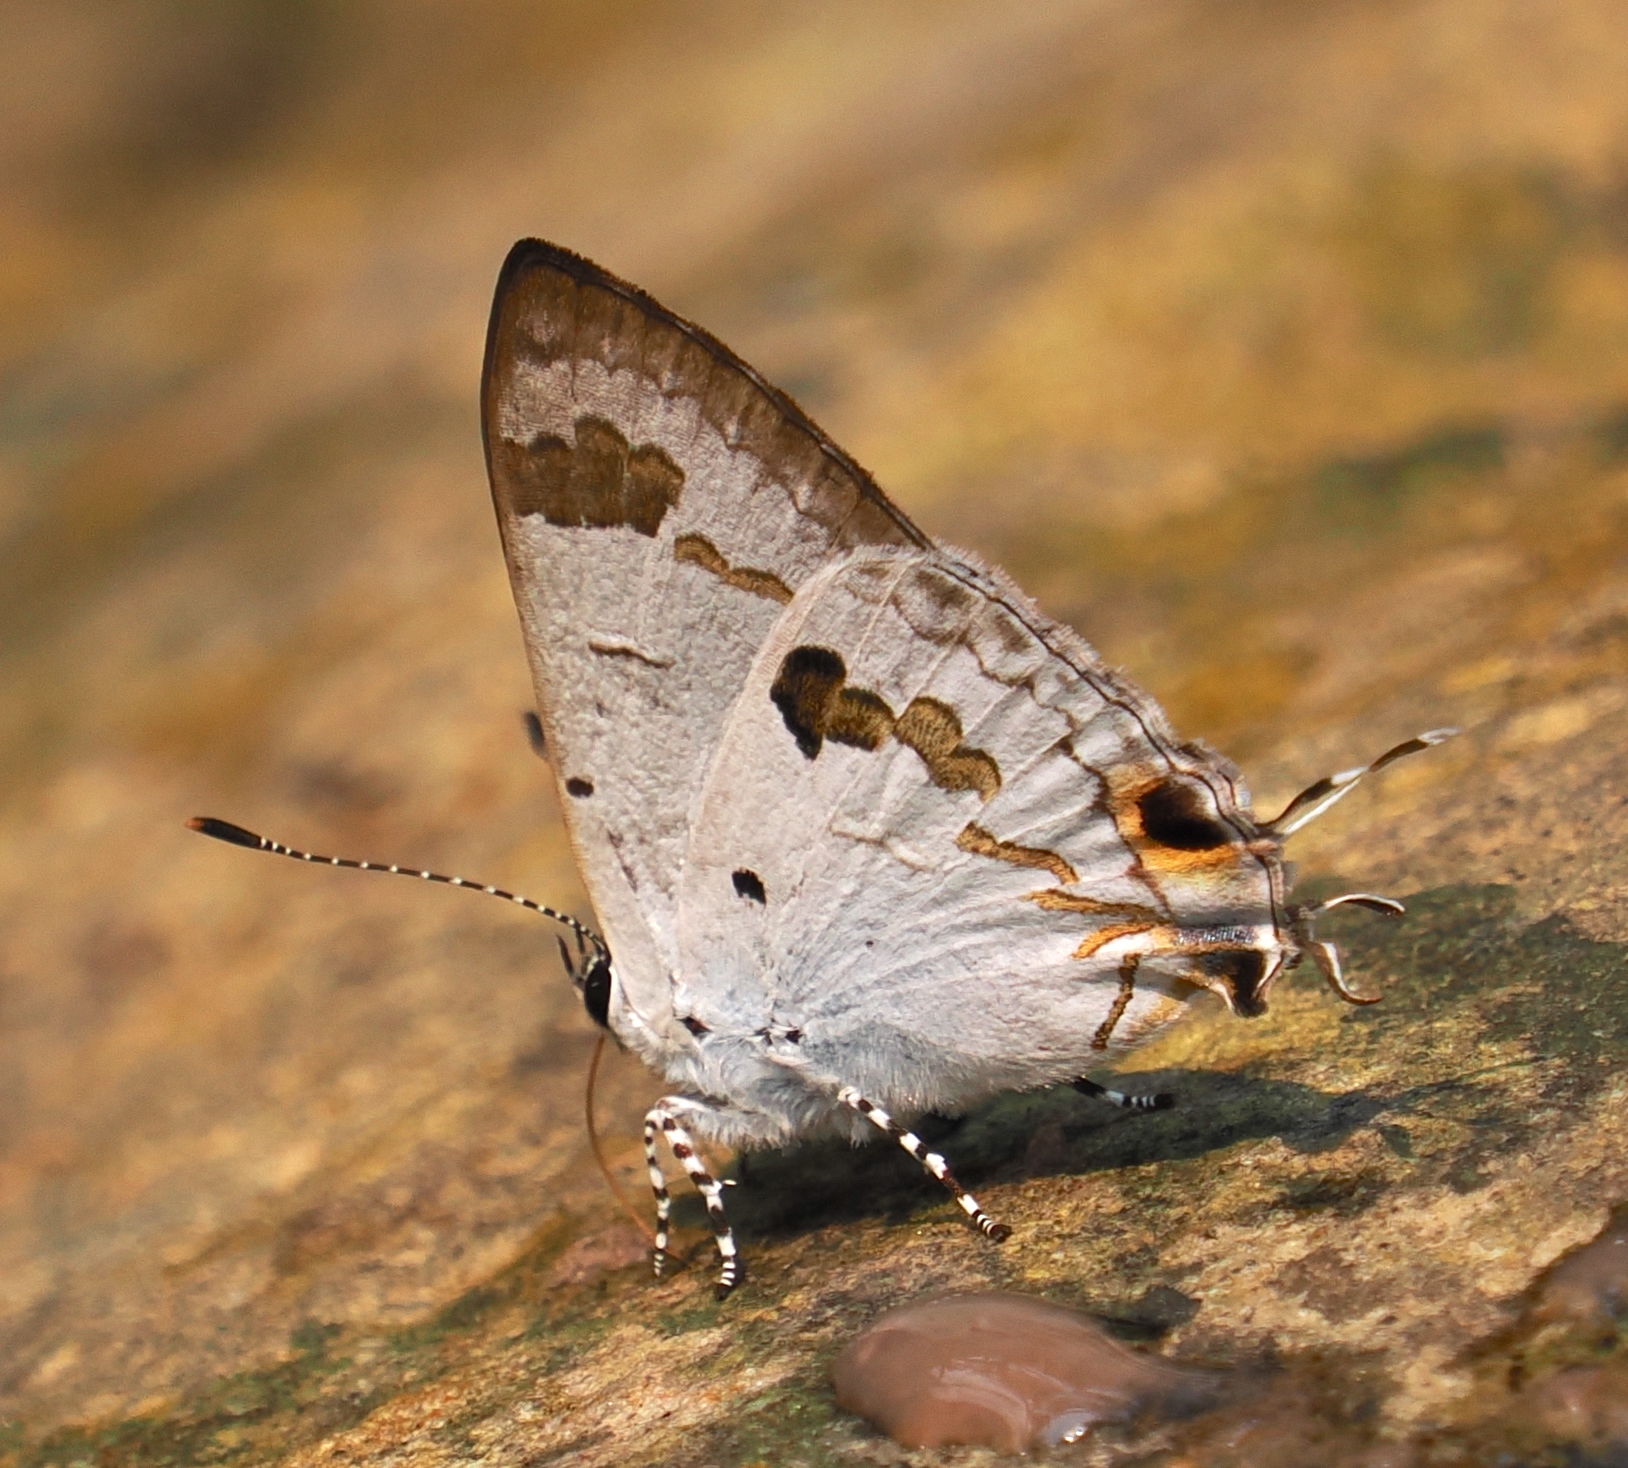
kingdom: Animalia
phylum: Arthropoda
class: Insecta
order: Lepidoptera
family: Lycaenidae
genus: Chliaria
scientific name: Chliaria othona
